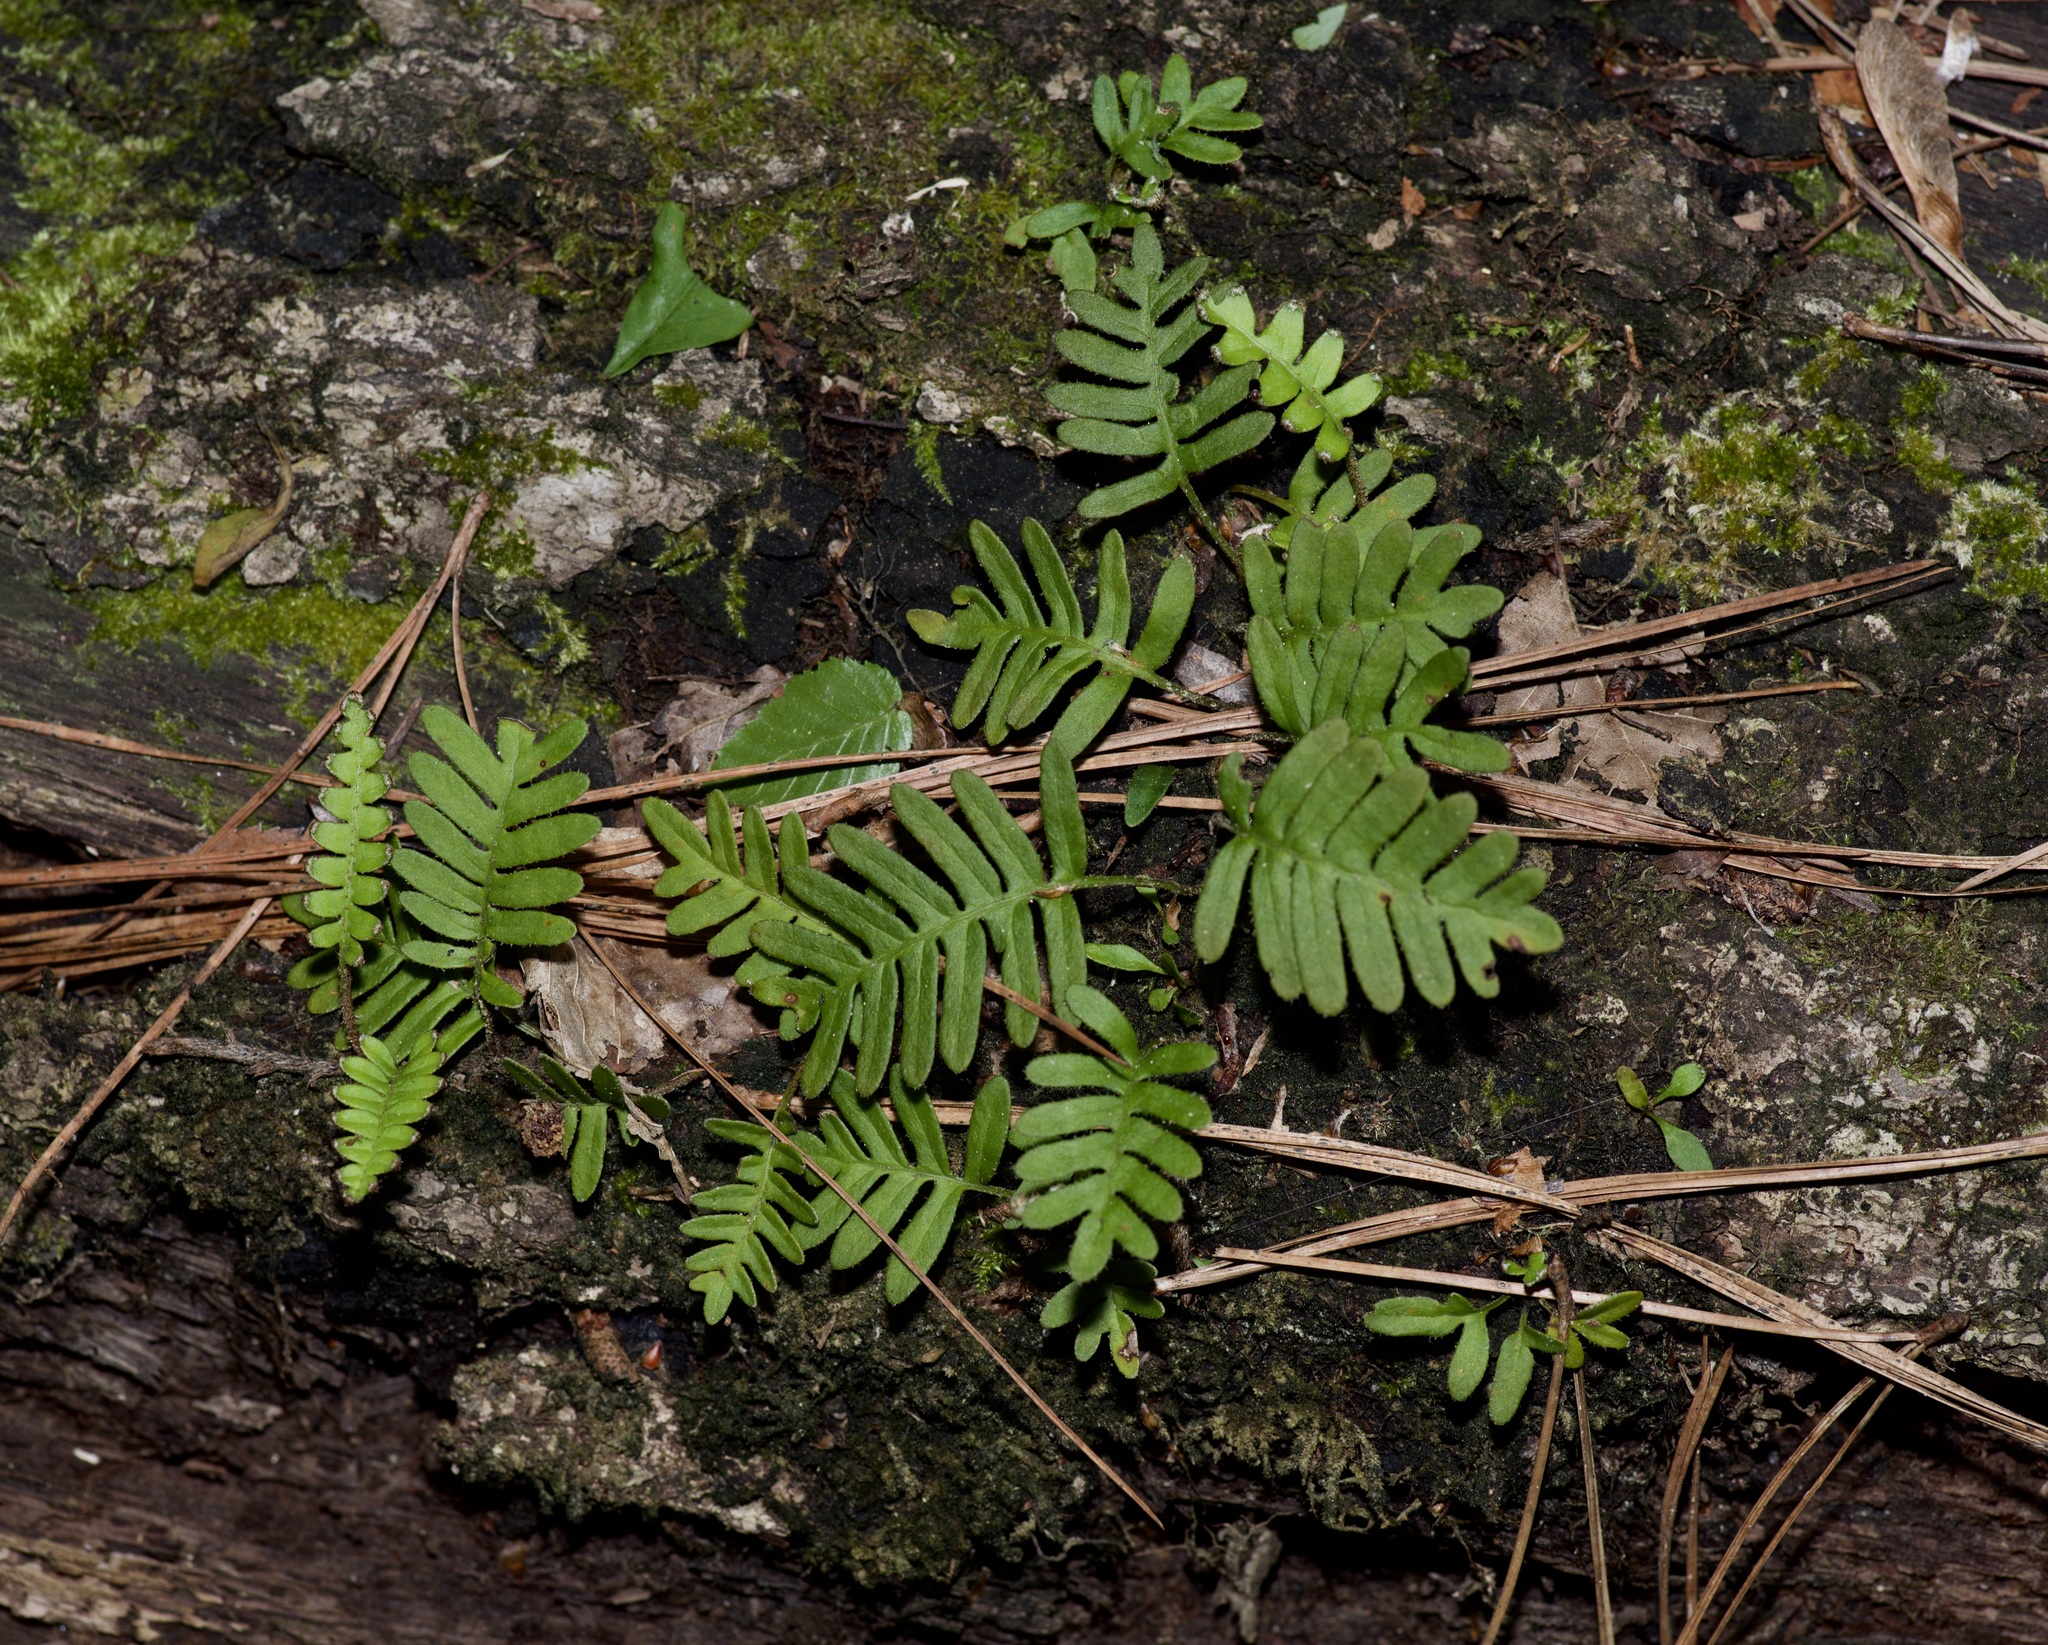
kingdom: Plantae
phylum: Tracheophyta
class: Polypodiopsida
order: Polypodiales
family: Polypodiaceae
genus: Pleopeltis
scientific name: Pleopeltis michauxiana
